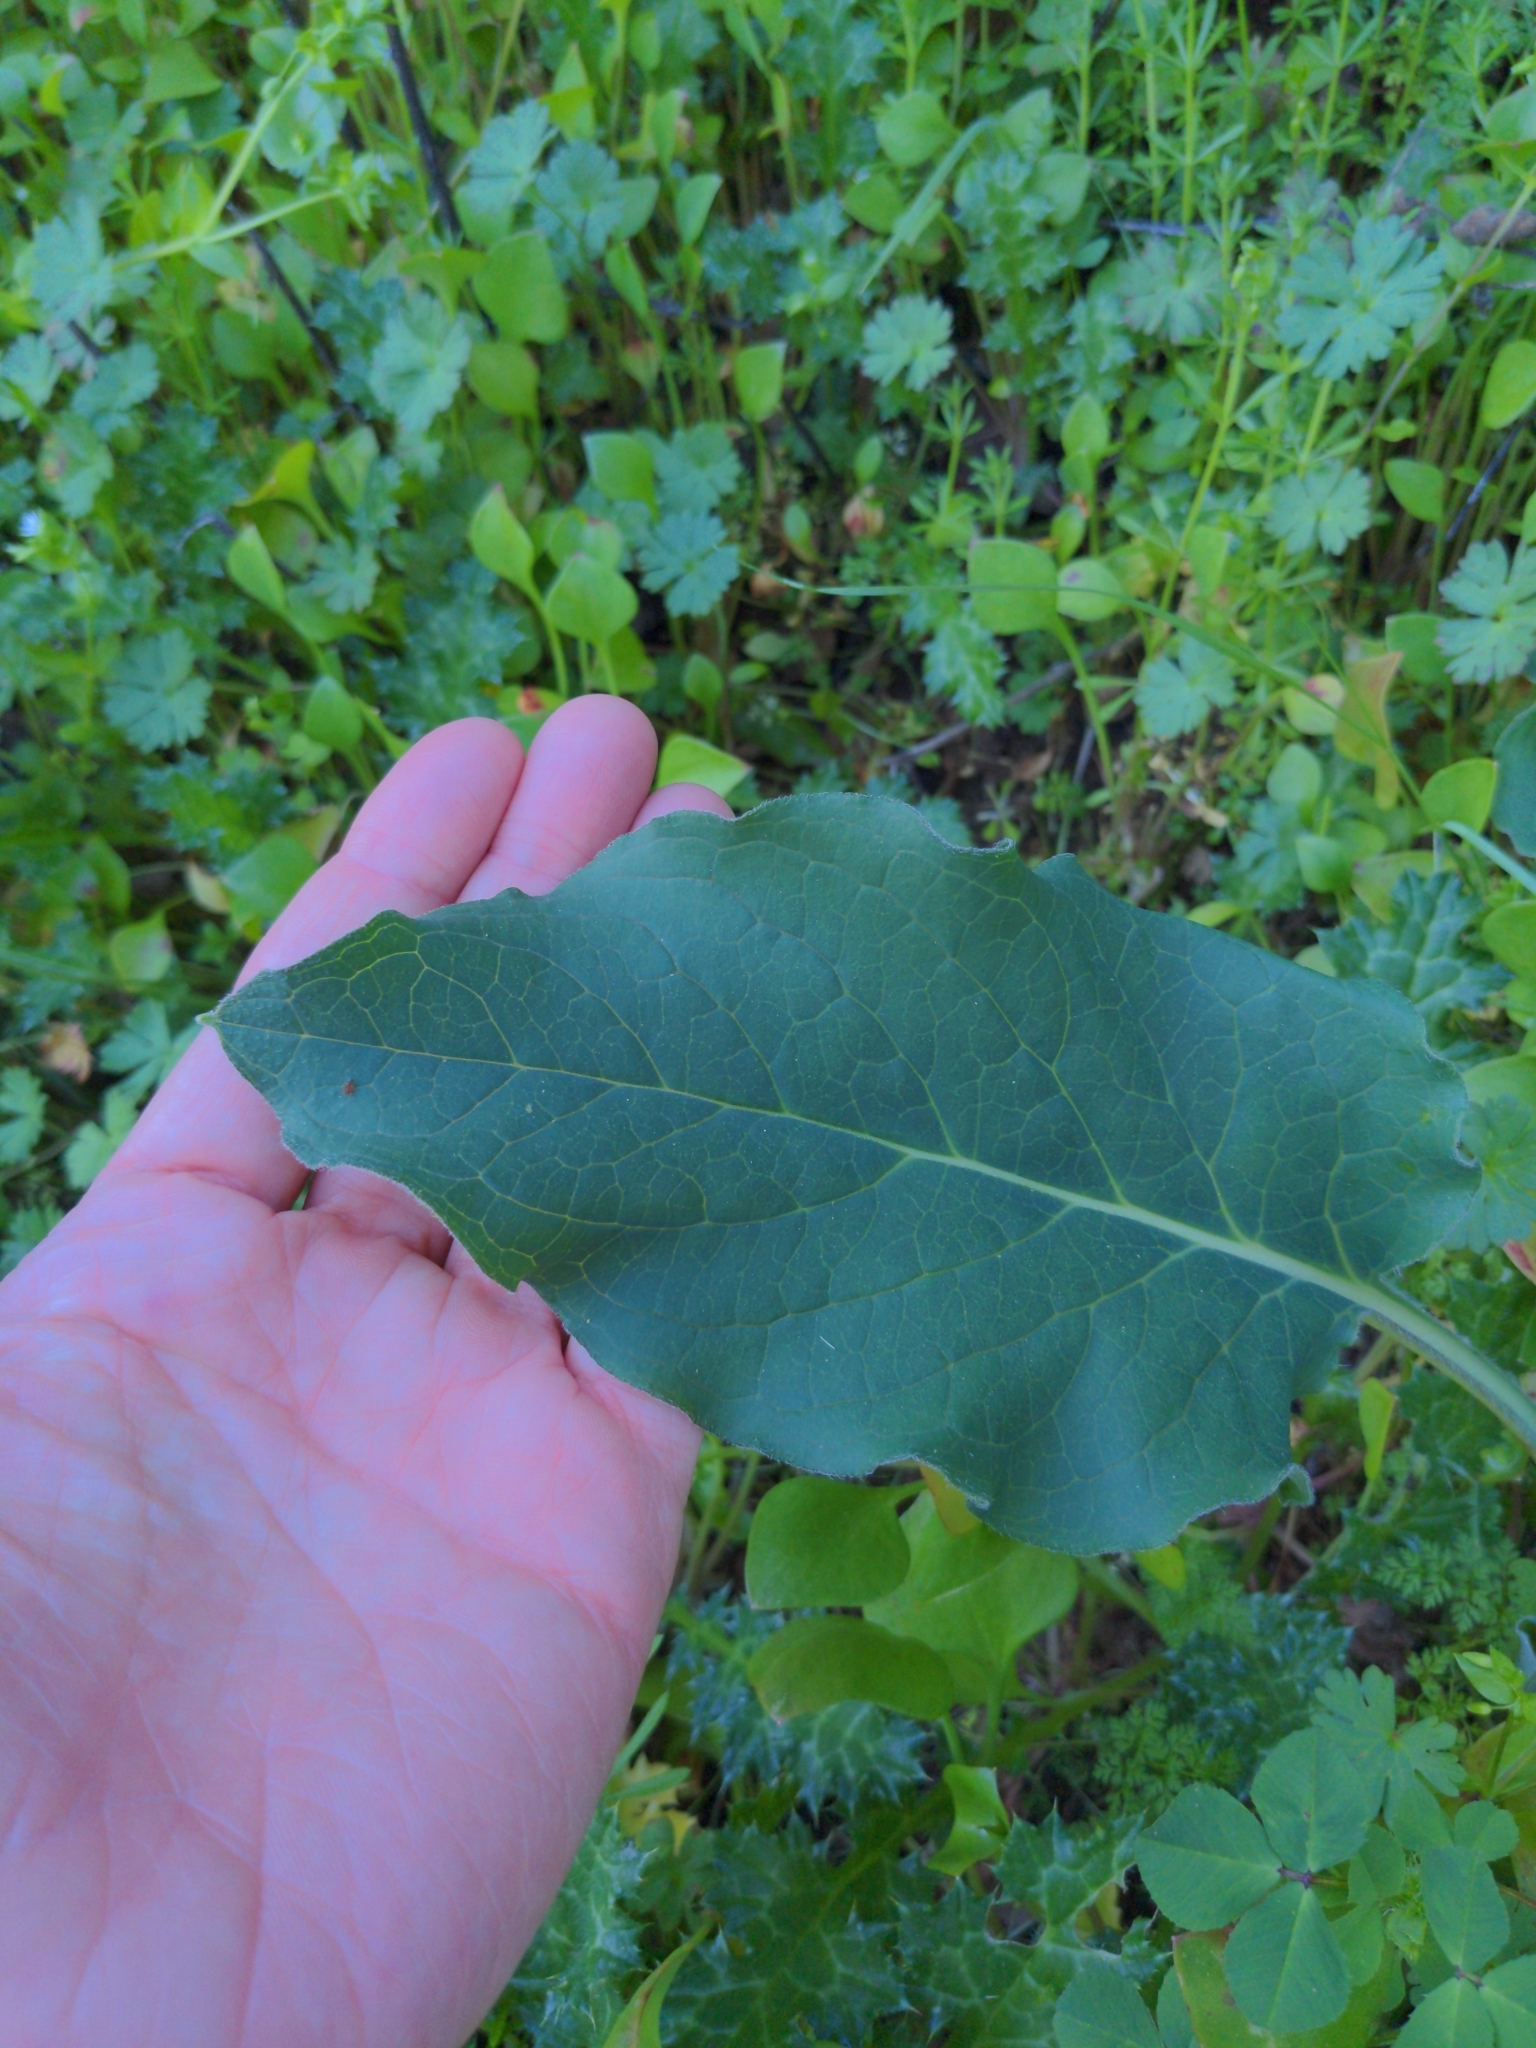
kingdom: Plantae
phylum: Tracheophyta
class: Magnoliopsida
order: Boraginales
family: Boraginaceae
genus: Adelinia
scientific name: Adelinia grande
